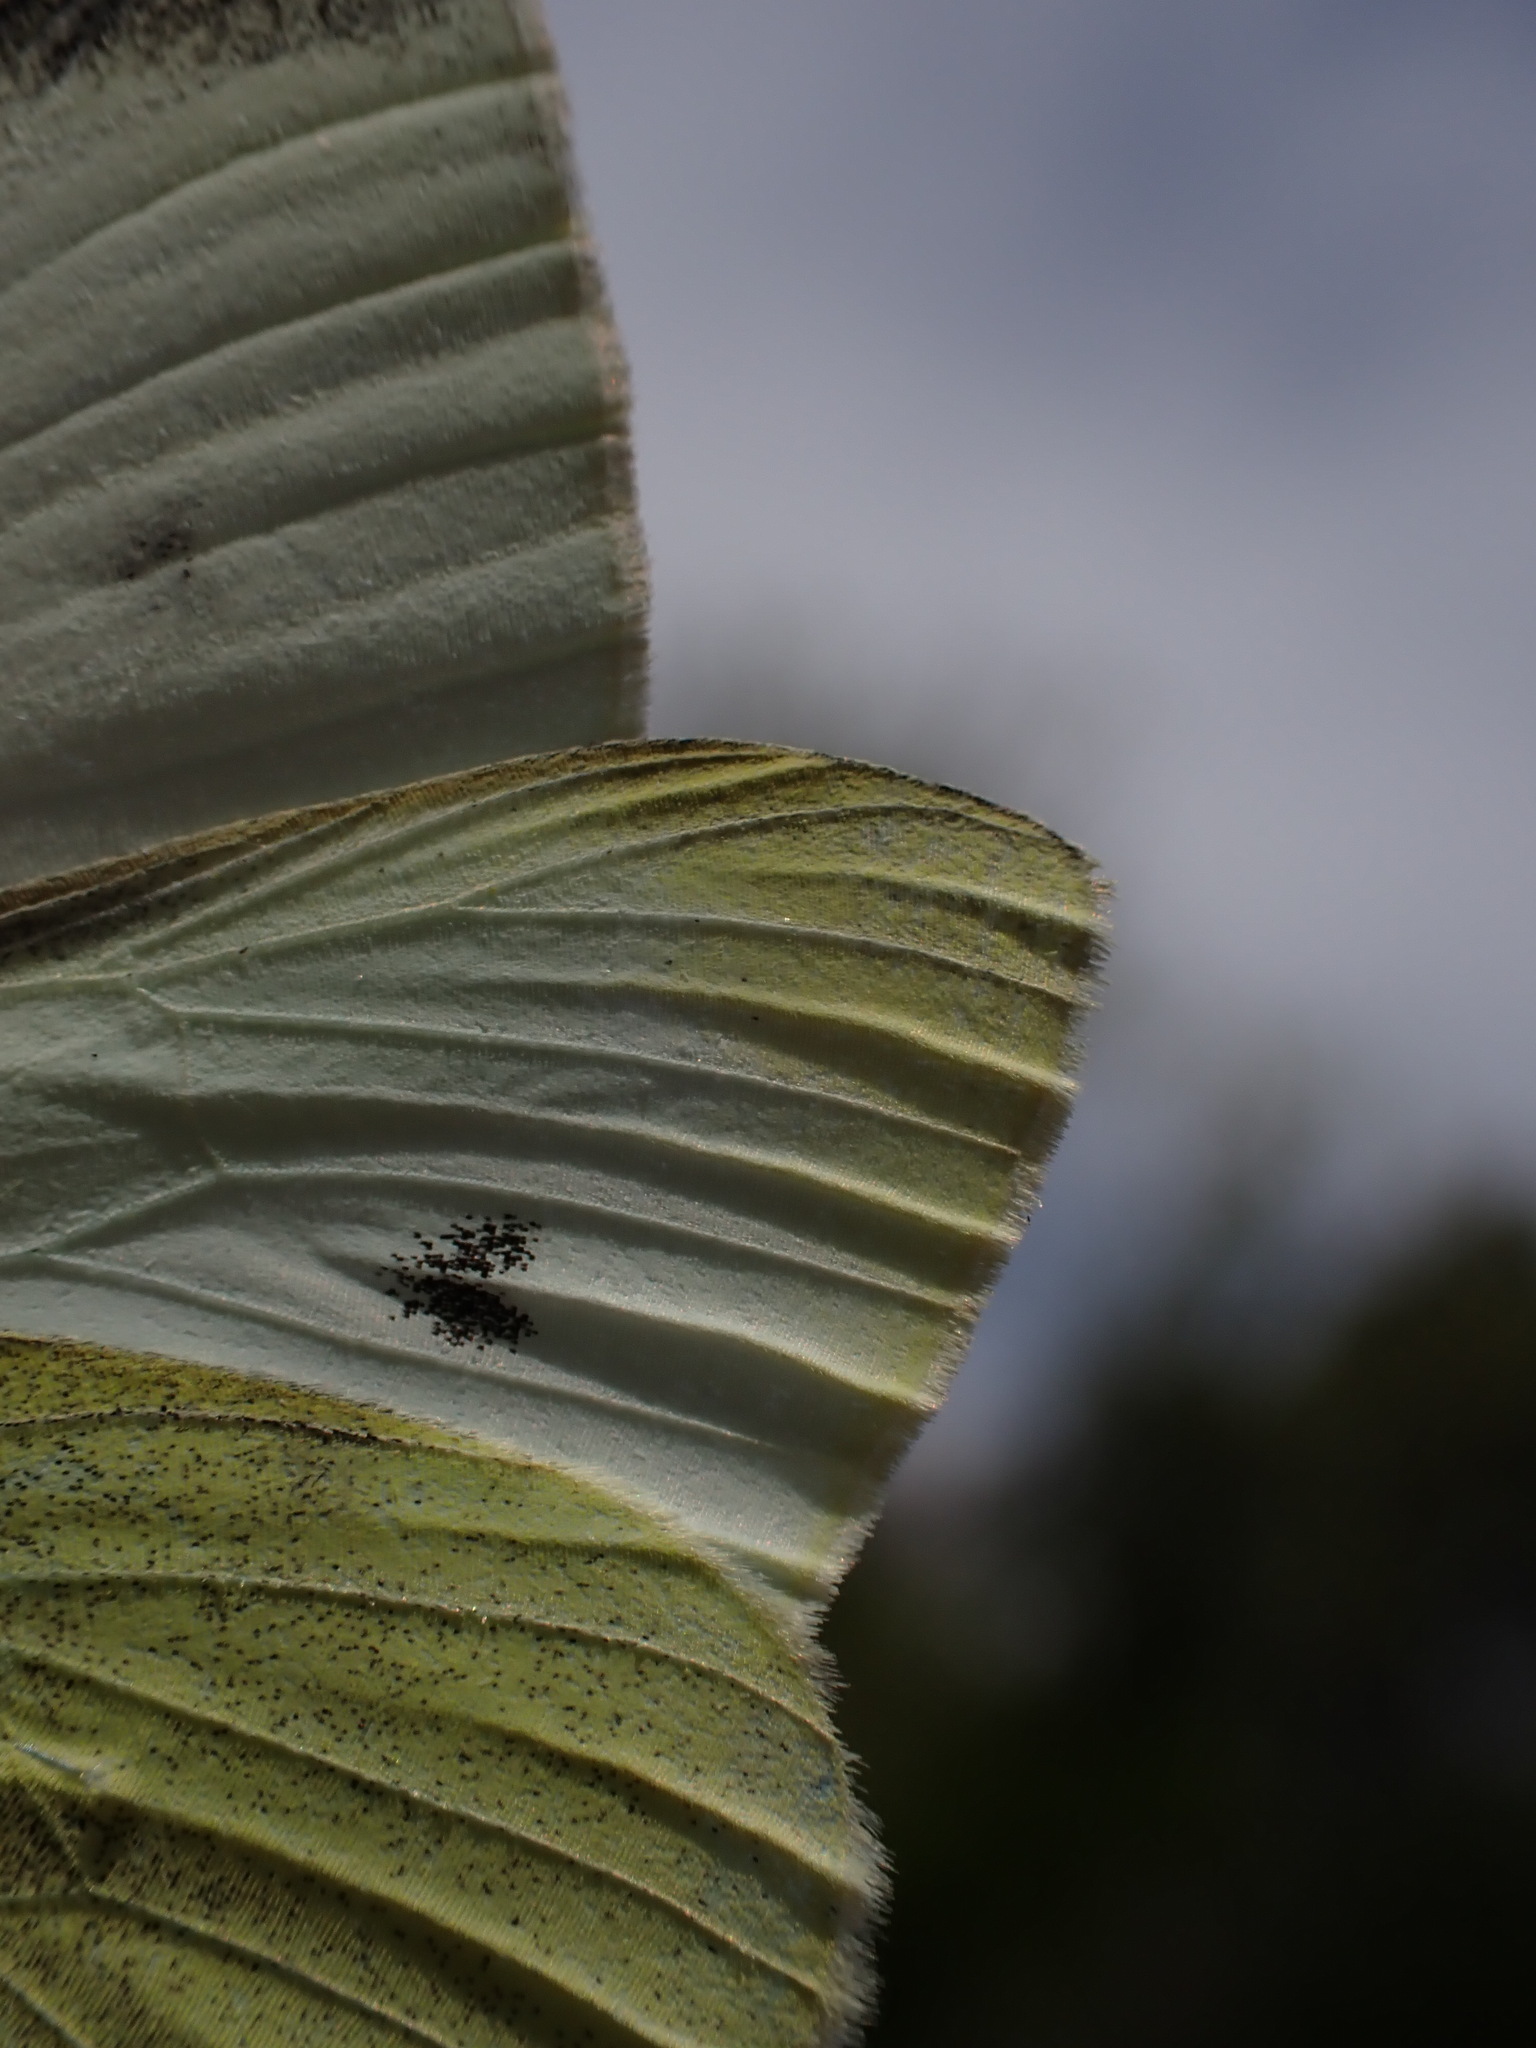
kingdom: Animalia
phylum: Arthropoda
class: Insecta
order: Lepidoptera
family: Pieridae
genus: Pieris
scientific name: Pieris rapae
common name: Small white
